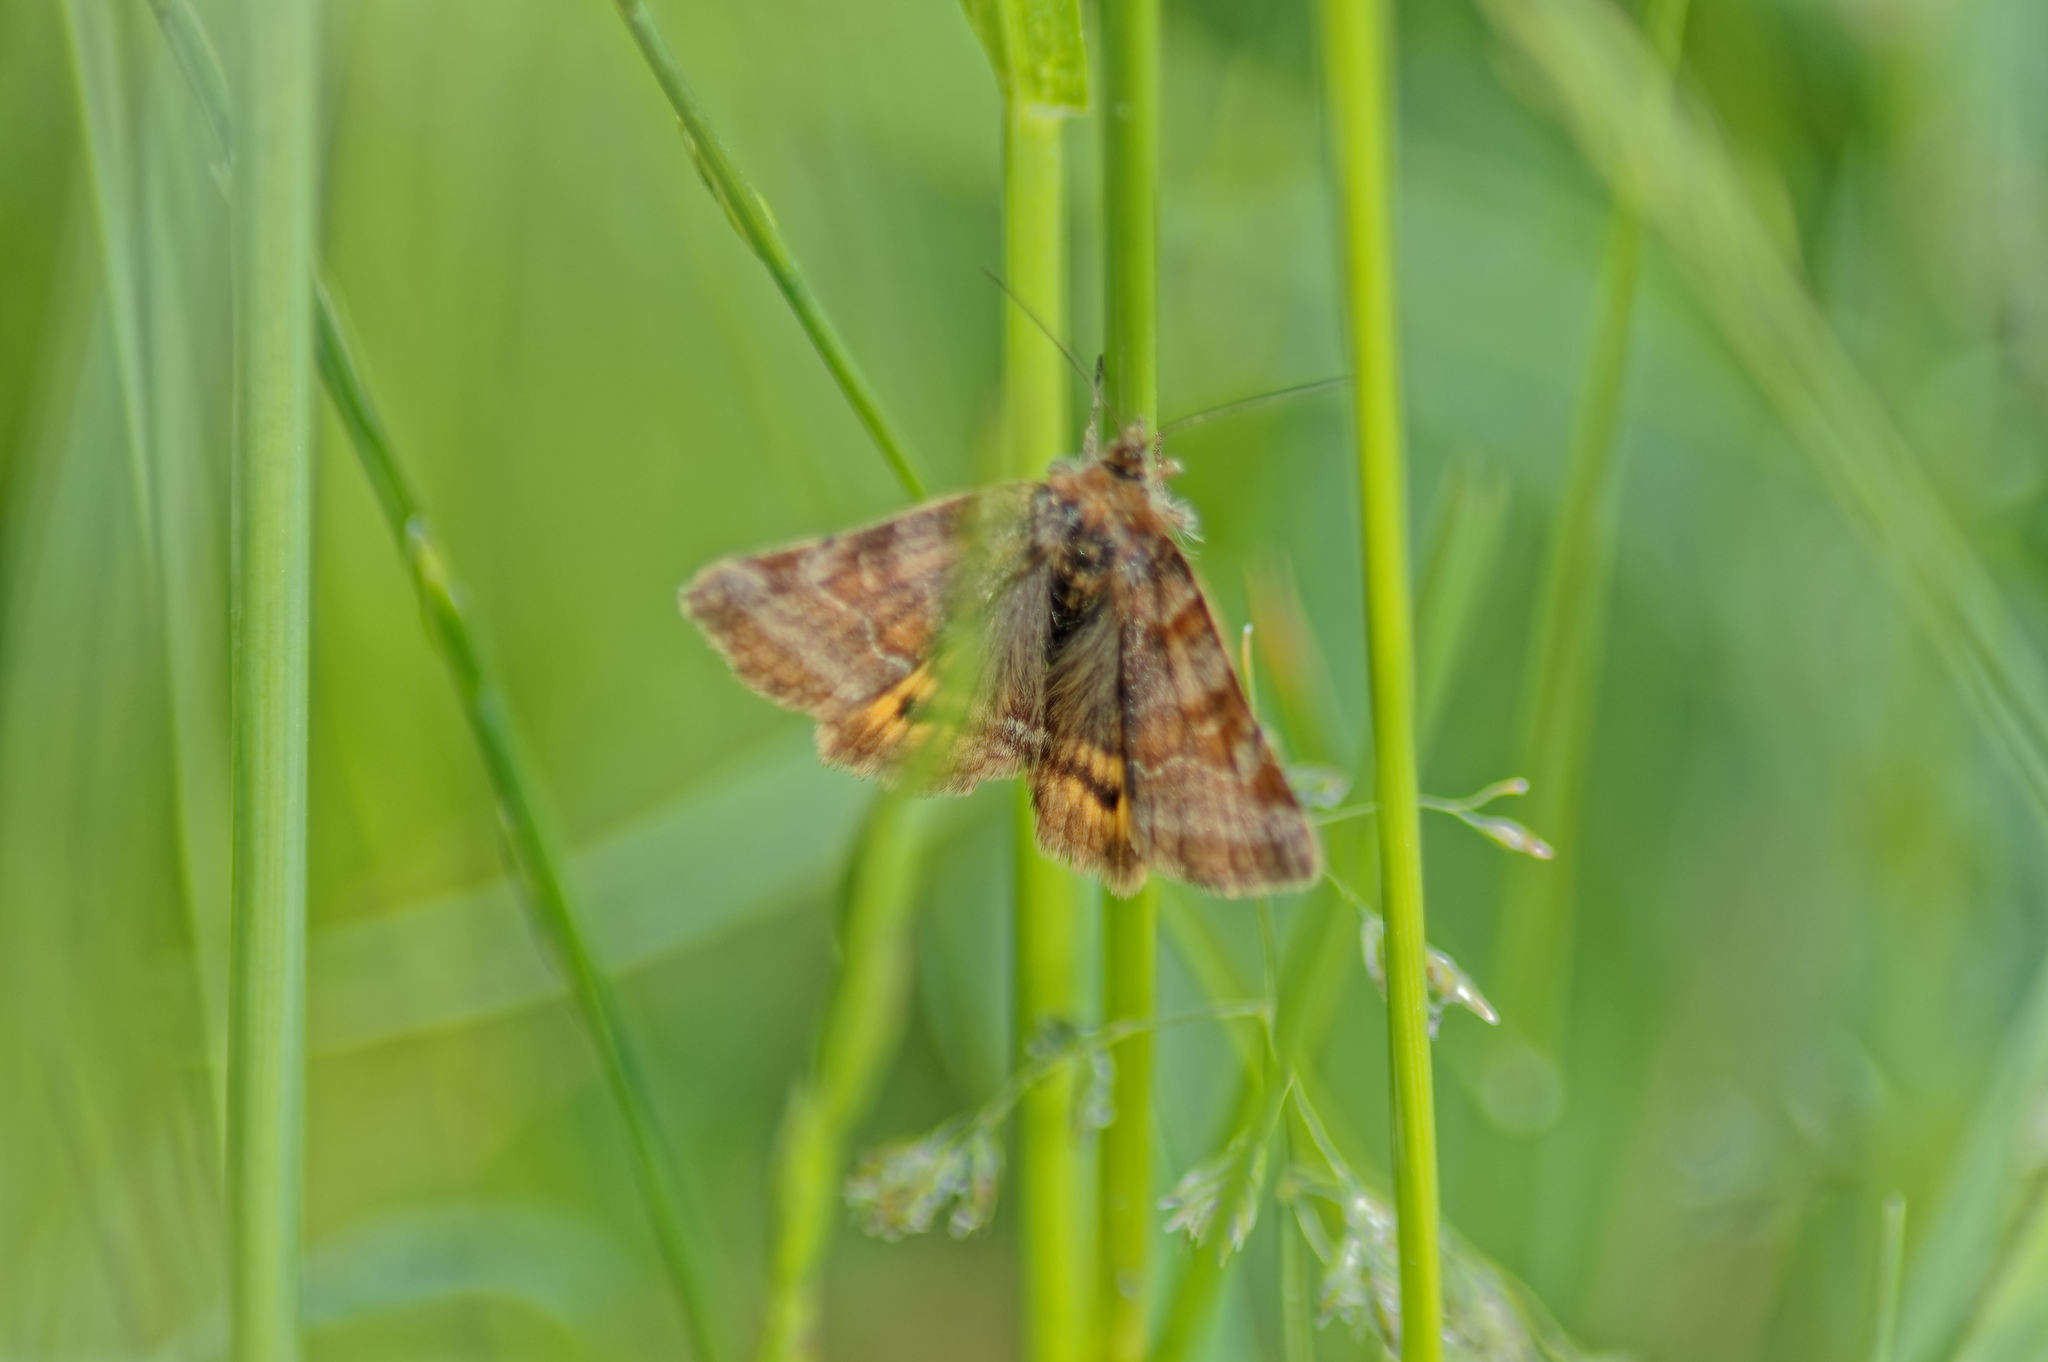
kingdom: Animalia
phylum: Arthropoda
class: Insecta
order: Lepidoptera
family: Erebidae
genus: Euclidia
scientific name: Euclidia glyphica
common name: Burnet companion
